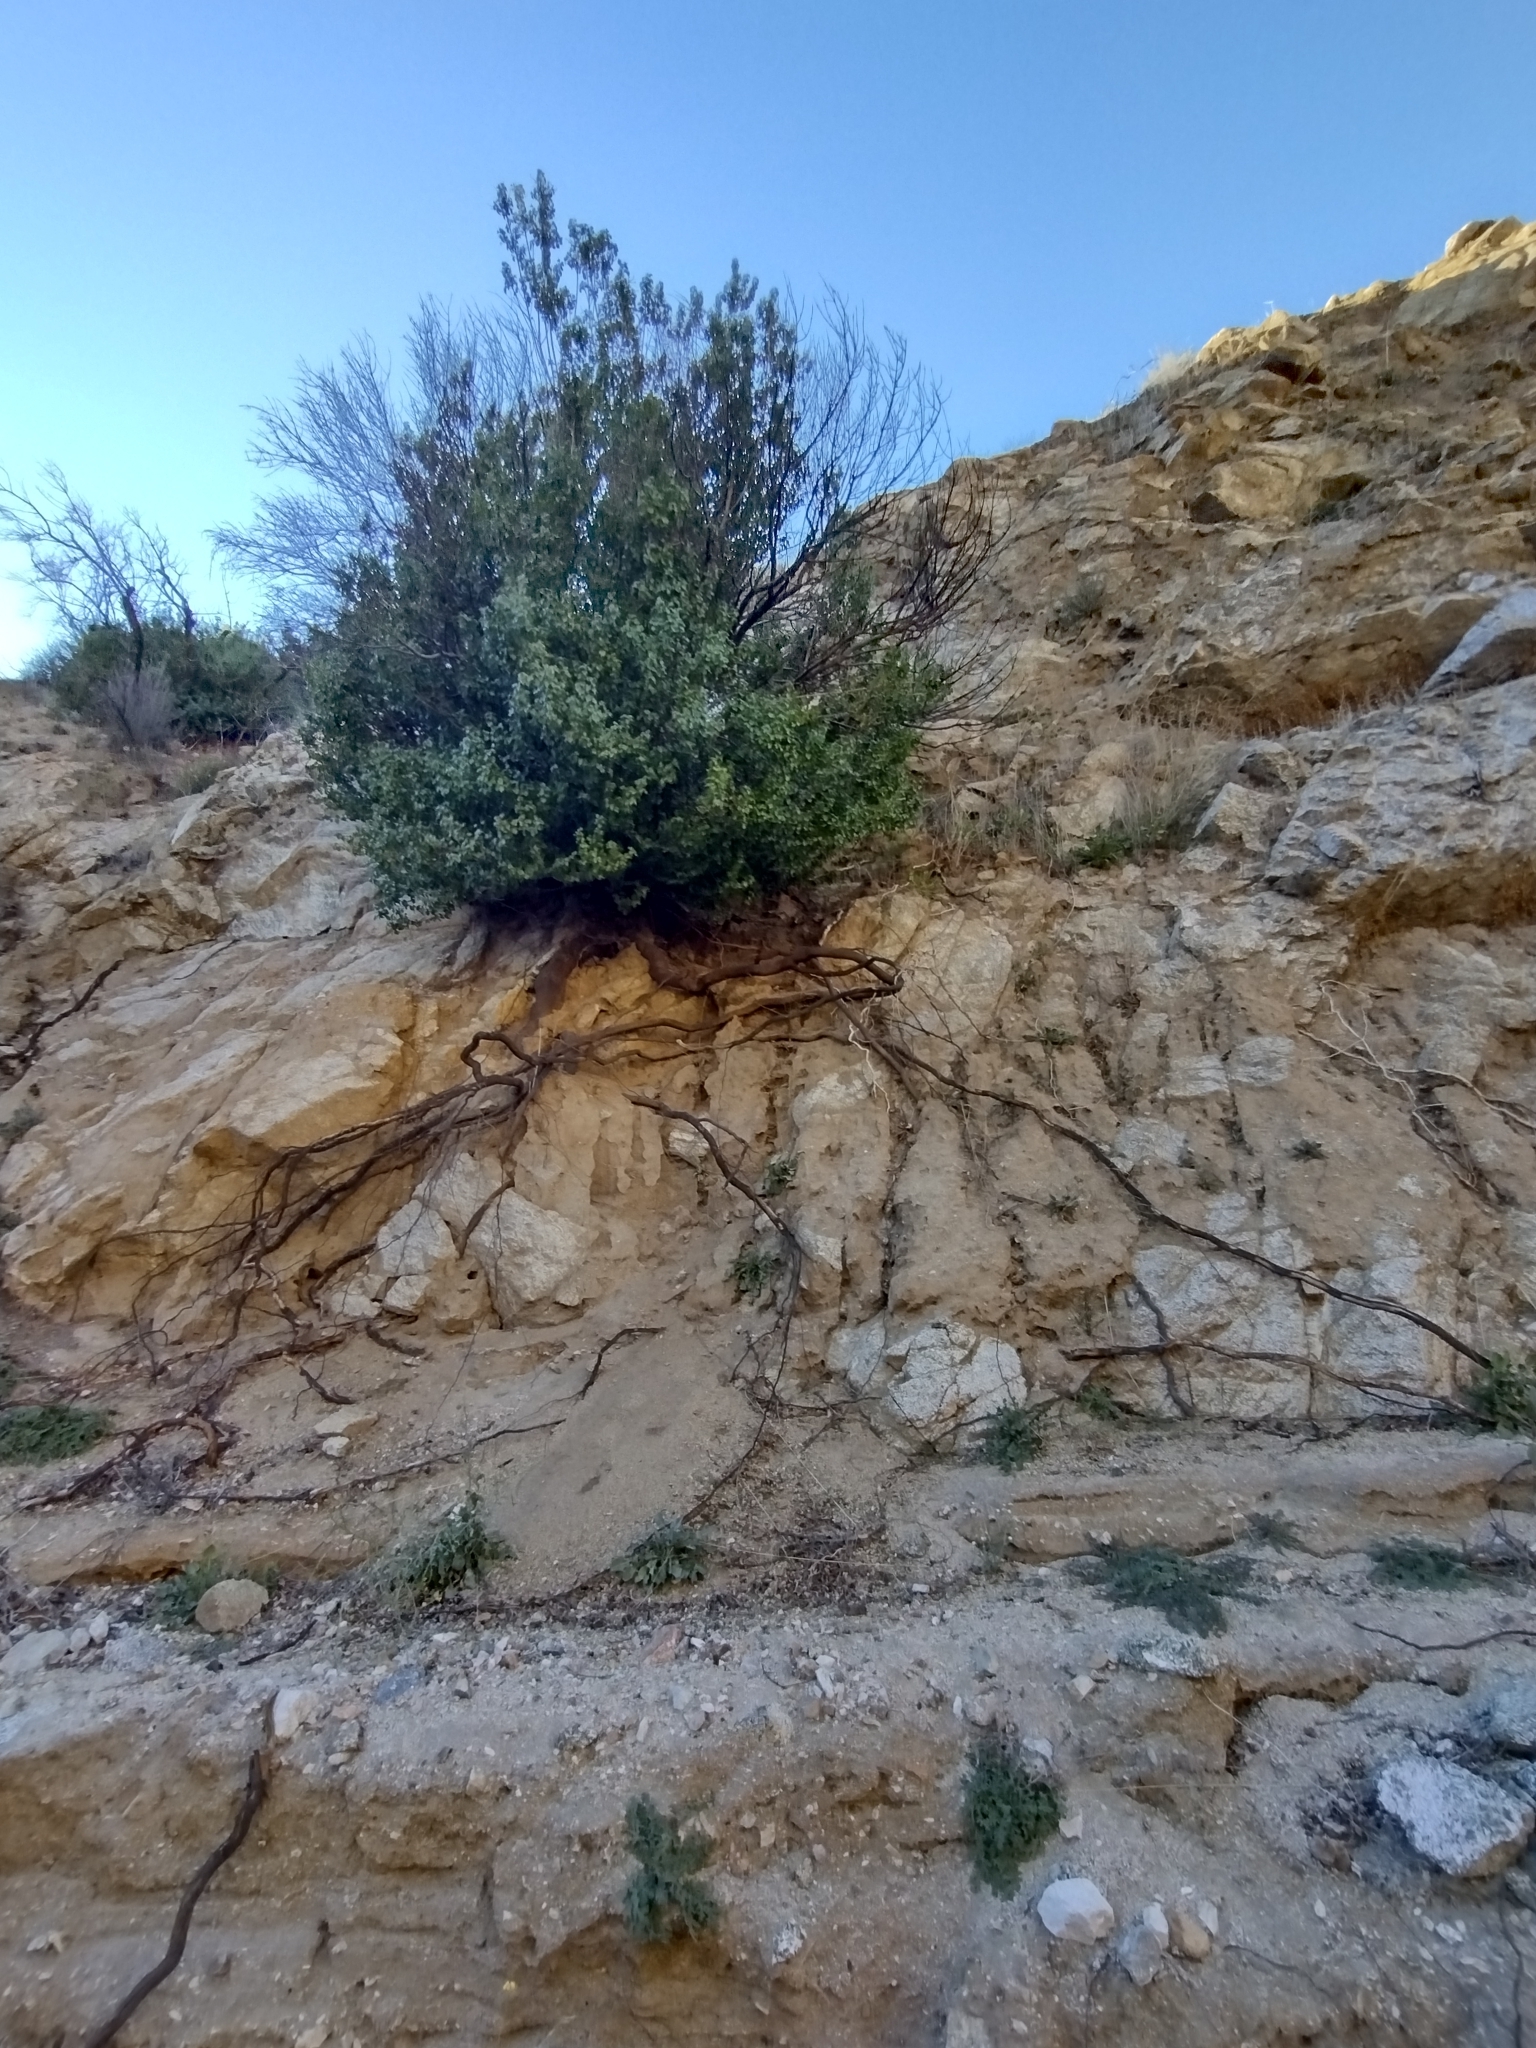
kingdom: Plantae
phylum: Tracheophyta
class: Magnoliopsida
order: Rosales
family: Rosaceae
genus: Prunus
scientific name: Prunus ilicifolia
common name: Hollyleaf cherry
